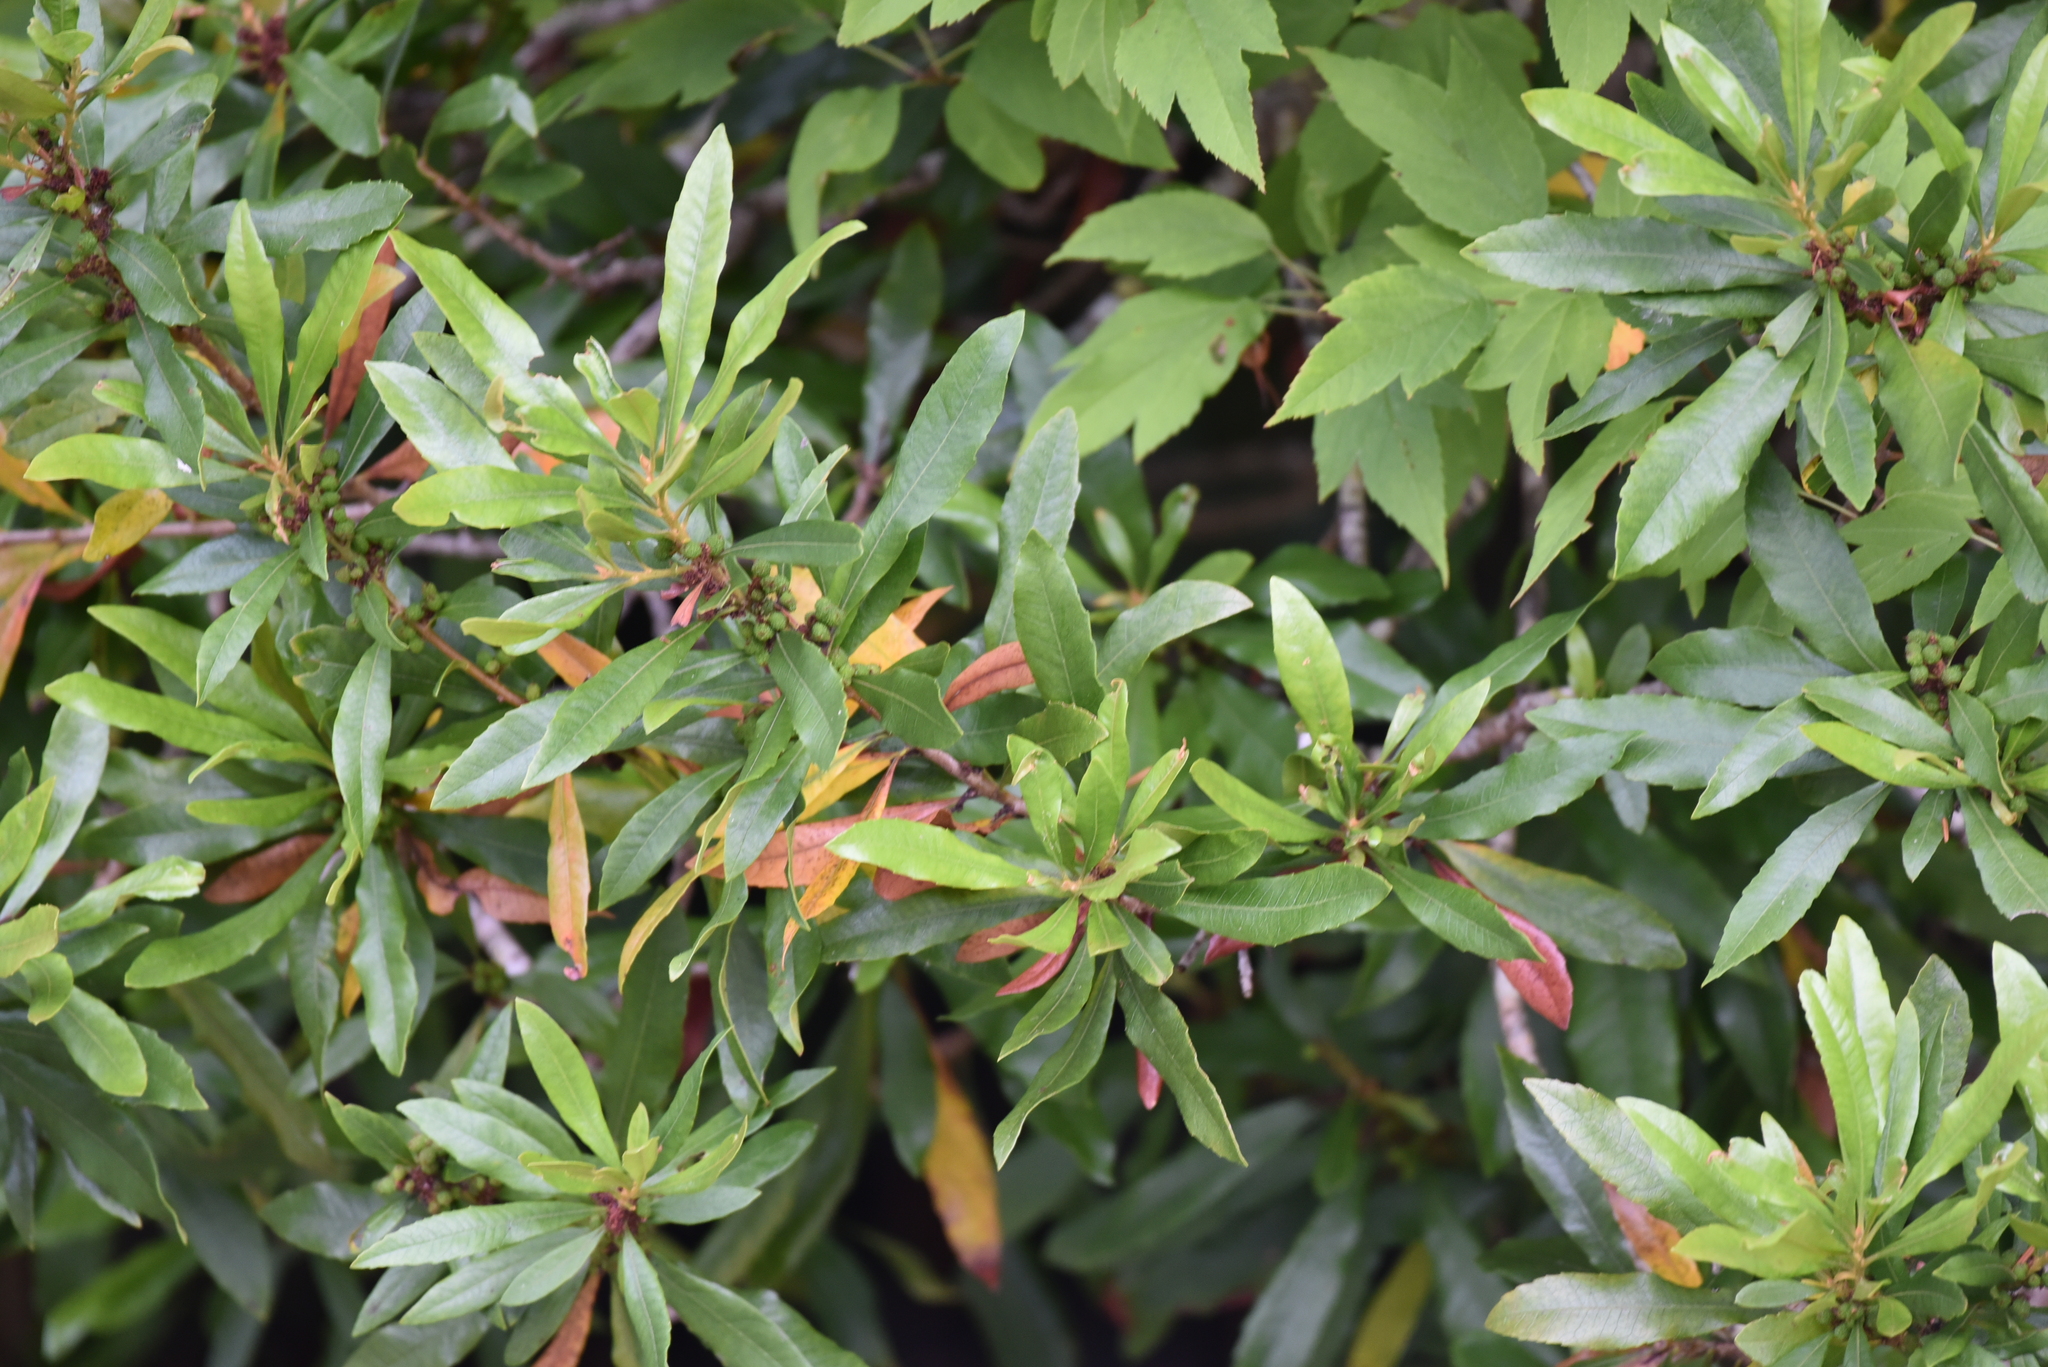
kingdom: Plantae
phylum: Tracheophyta
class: Magnoliopsida
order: Fagales
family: Myricaceae
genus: Morella
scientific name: Morella californica
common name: California wax-myrtle
